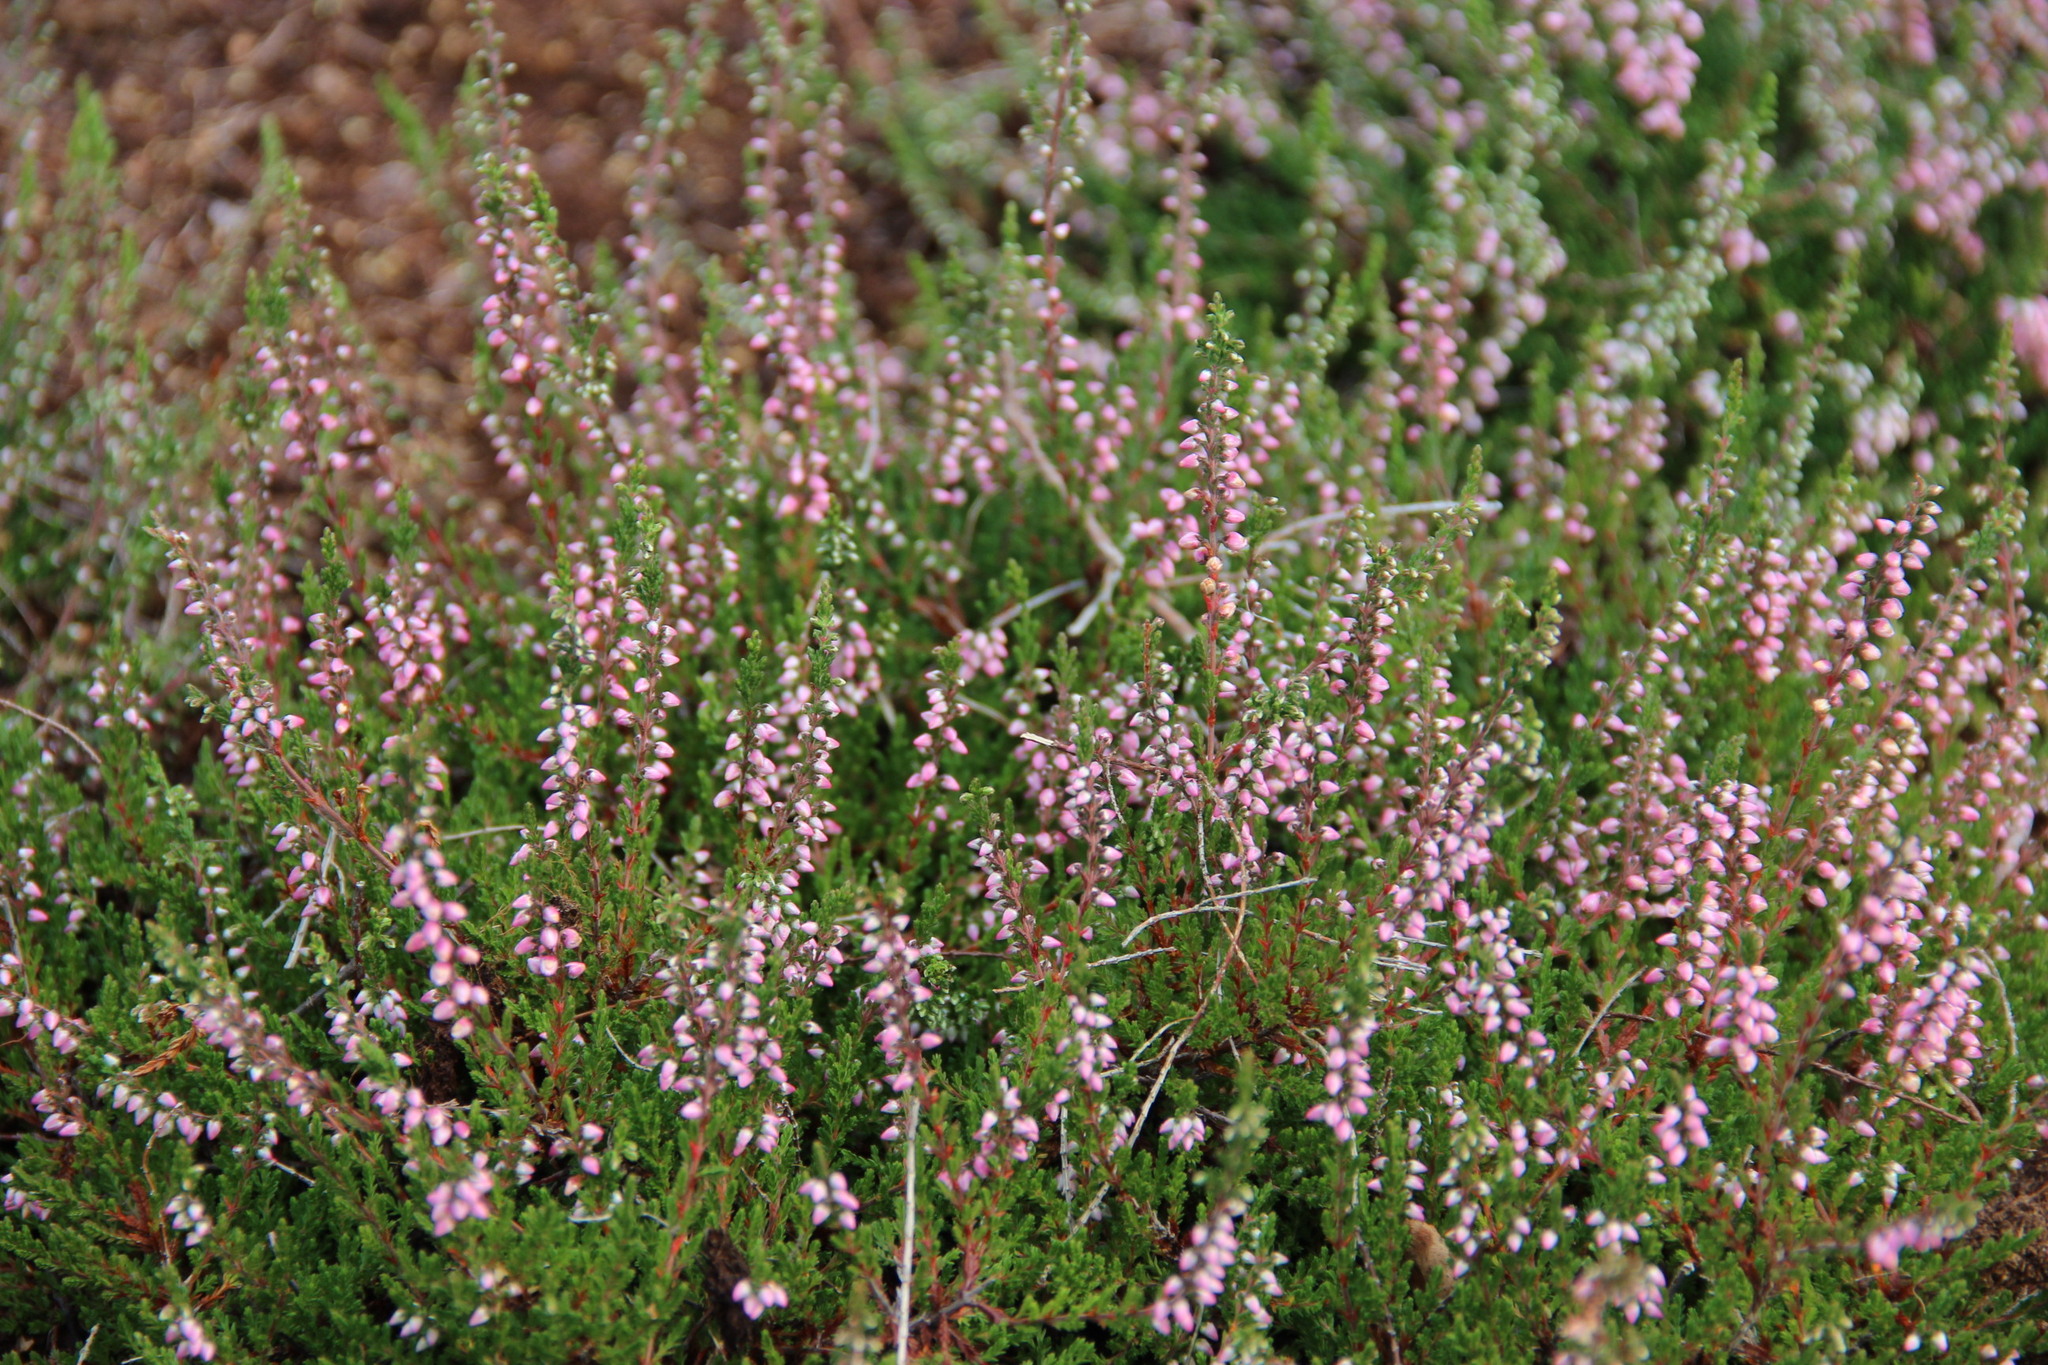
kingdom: Plantae
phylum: Tracheophyta
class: Magnoliopsida
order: Ericales
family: Ericaceae
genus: Calluna
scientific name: Calluna vulgaris
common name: Heather
